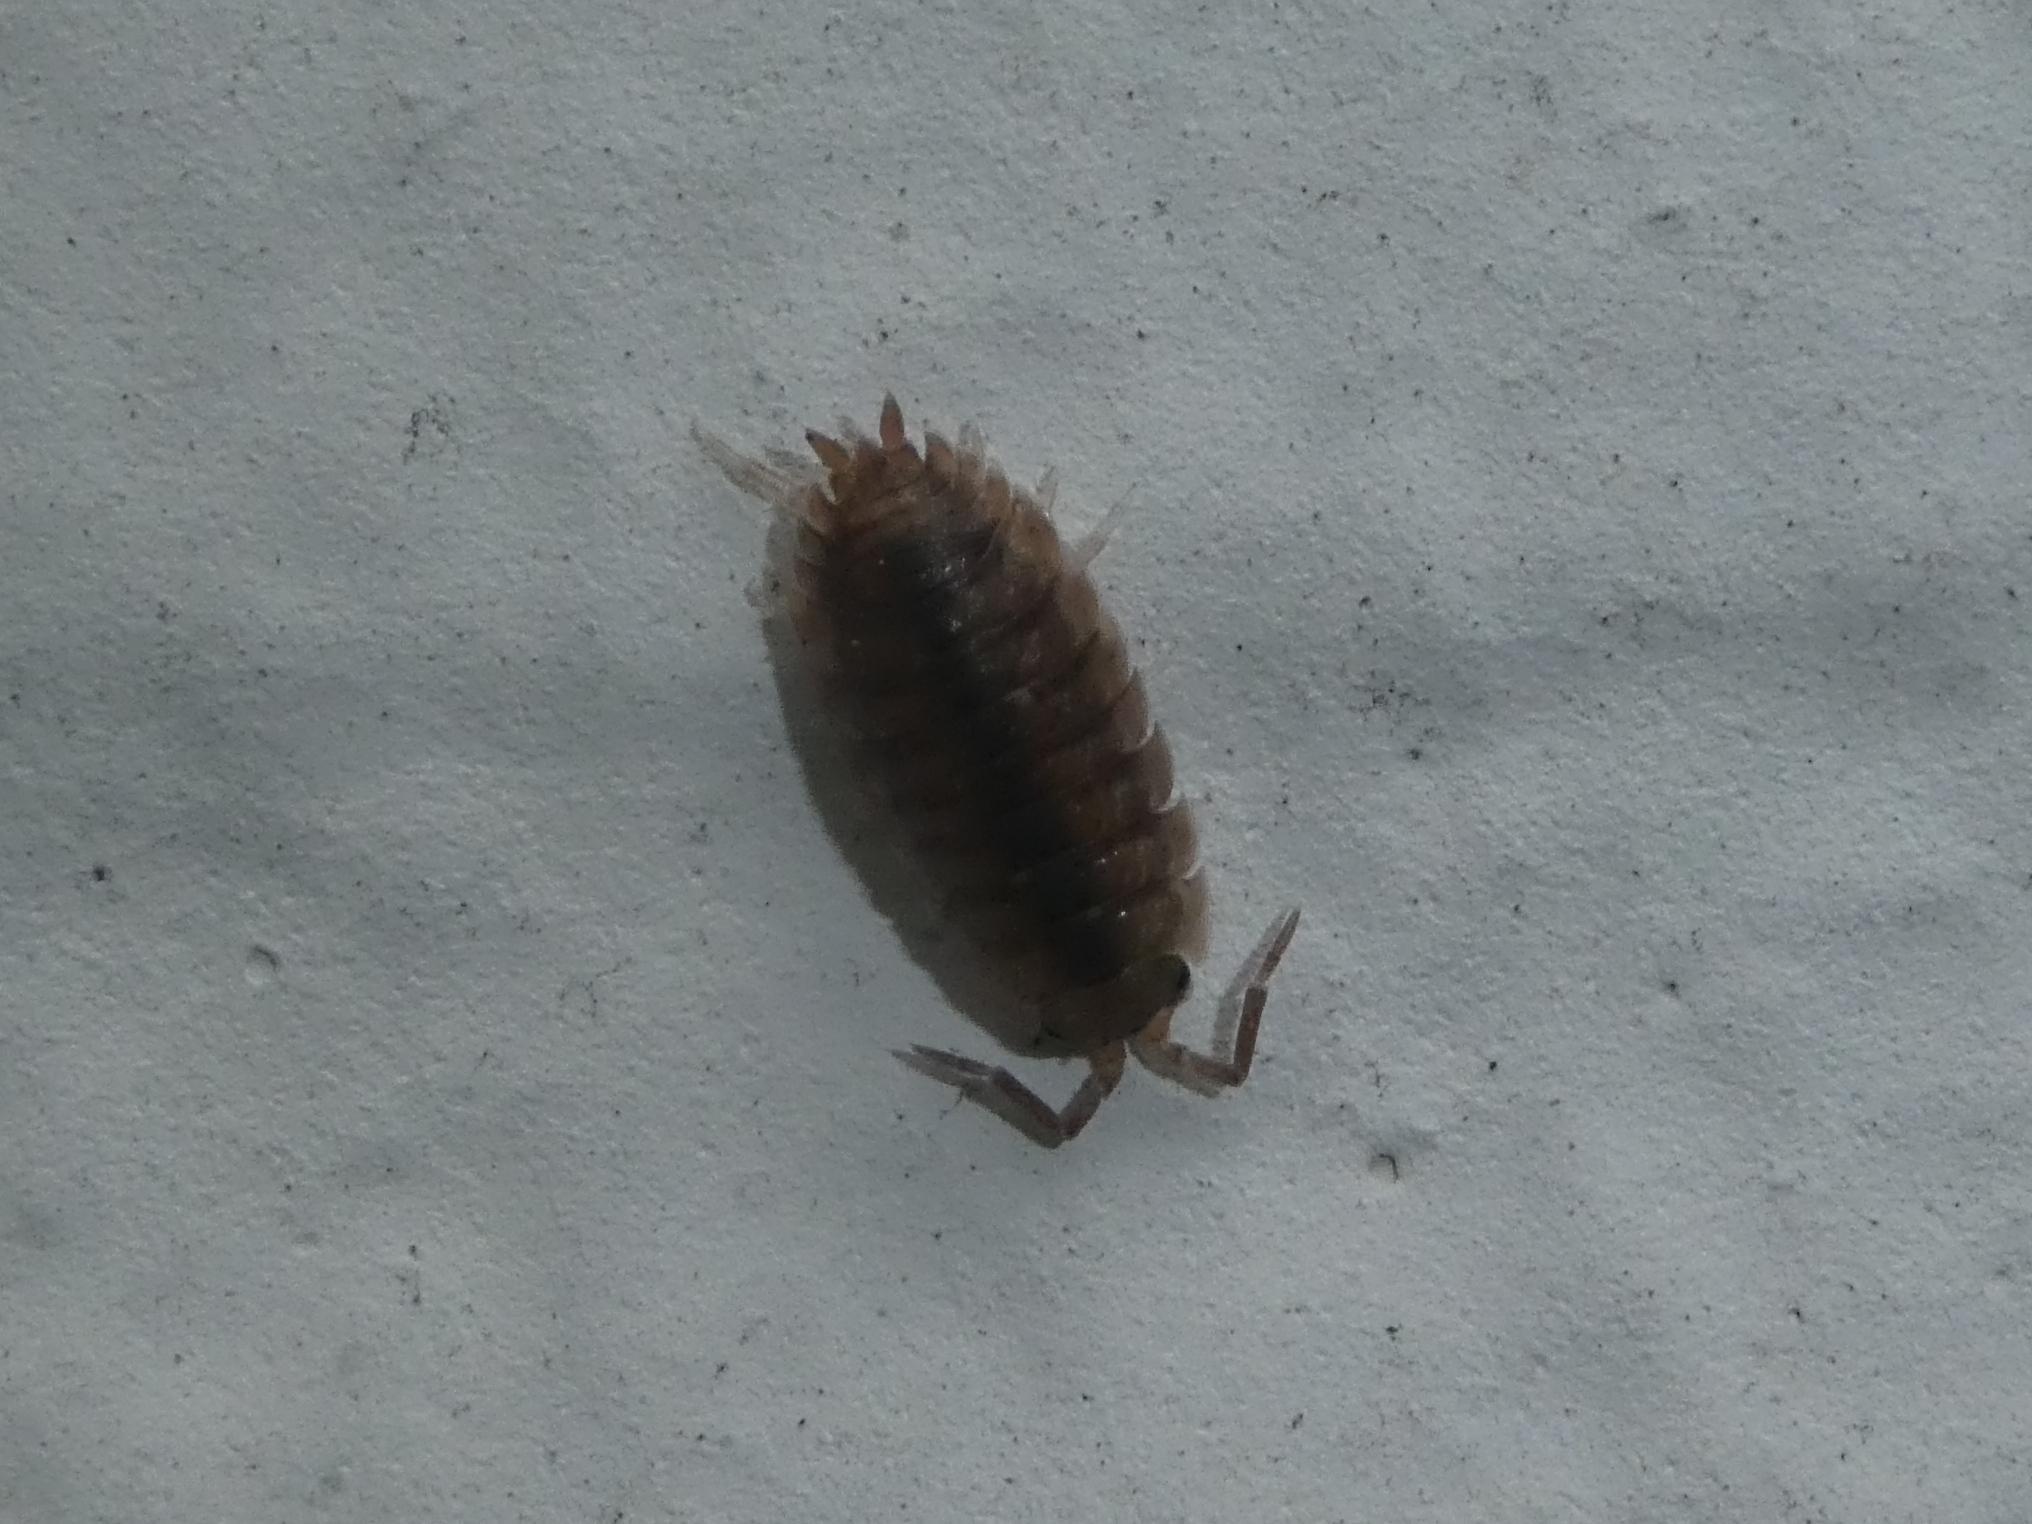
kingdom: Animalia
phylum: Arthropoda
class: Malacostraca
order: Isopoda
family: Porcellionidae
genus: Porcellio
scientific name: Porcellio scaber
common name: Common rough woodlouse
